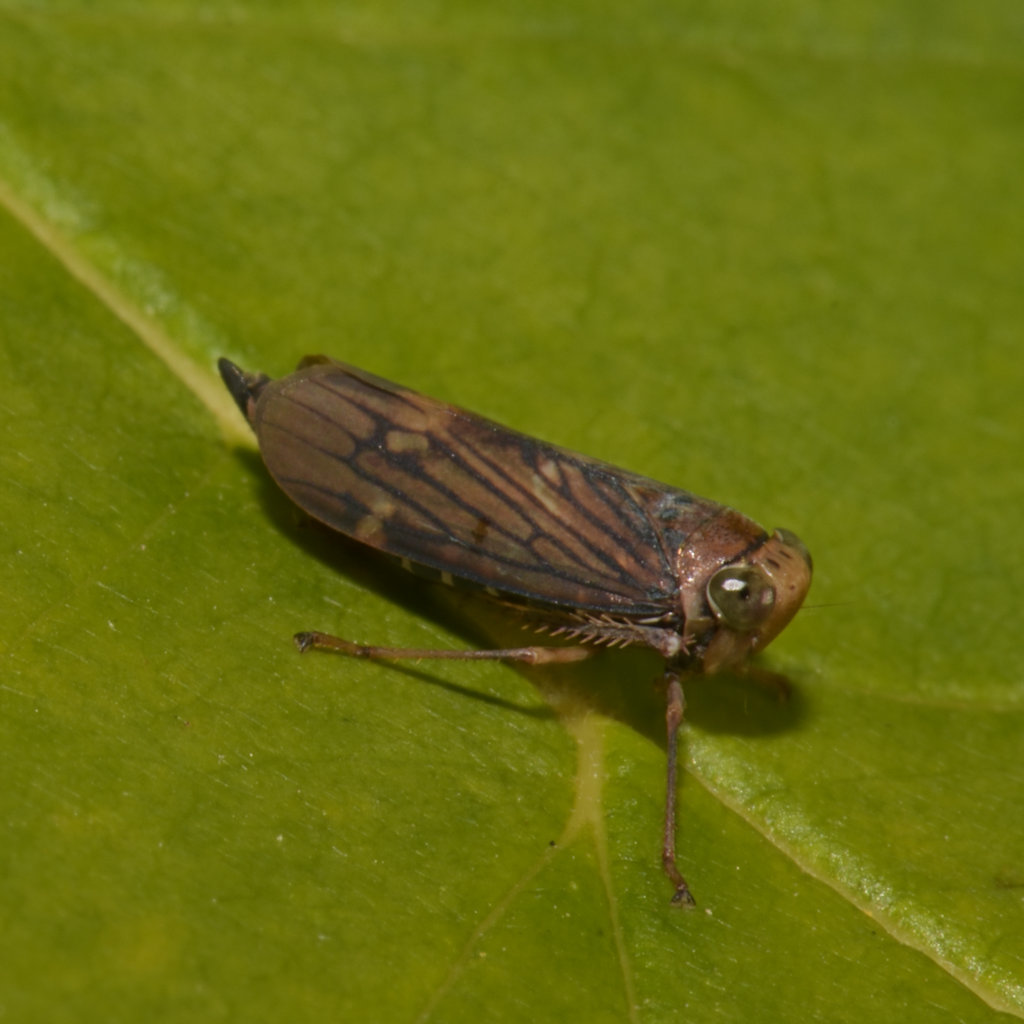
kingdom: Animalia
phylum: Arthropoda
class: Insecta
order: Hemiptera
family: Cicadellidae
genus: Jikradia
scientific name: Jikradia olitoria
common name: Coppery leafhopper
